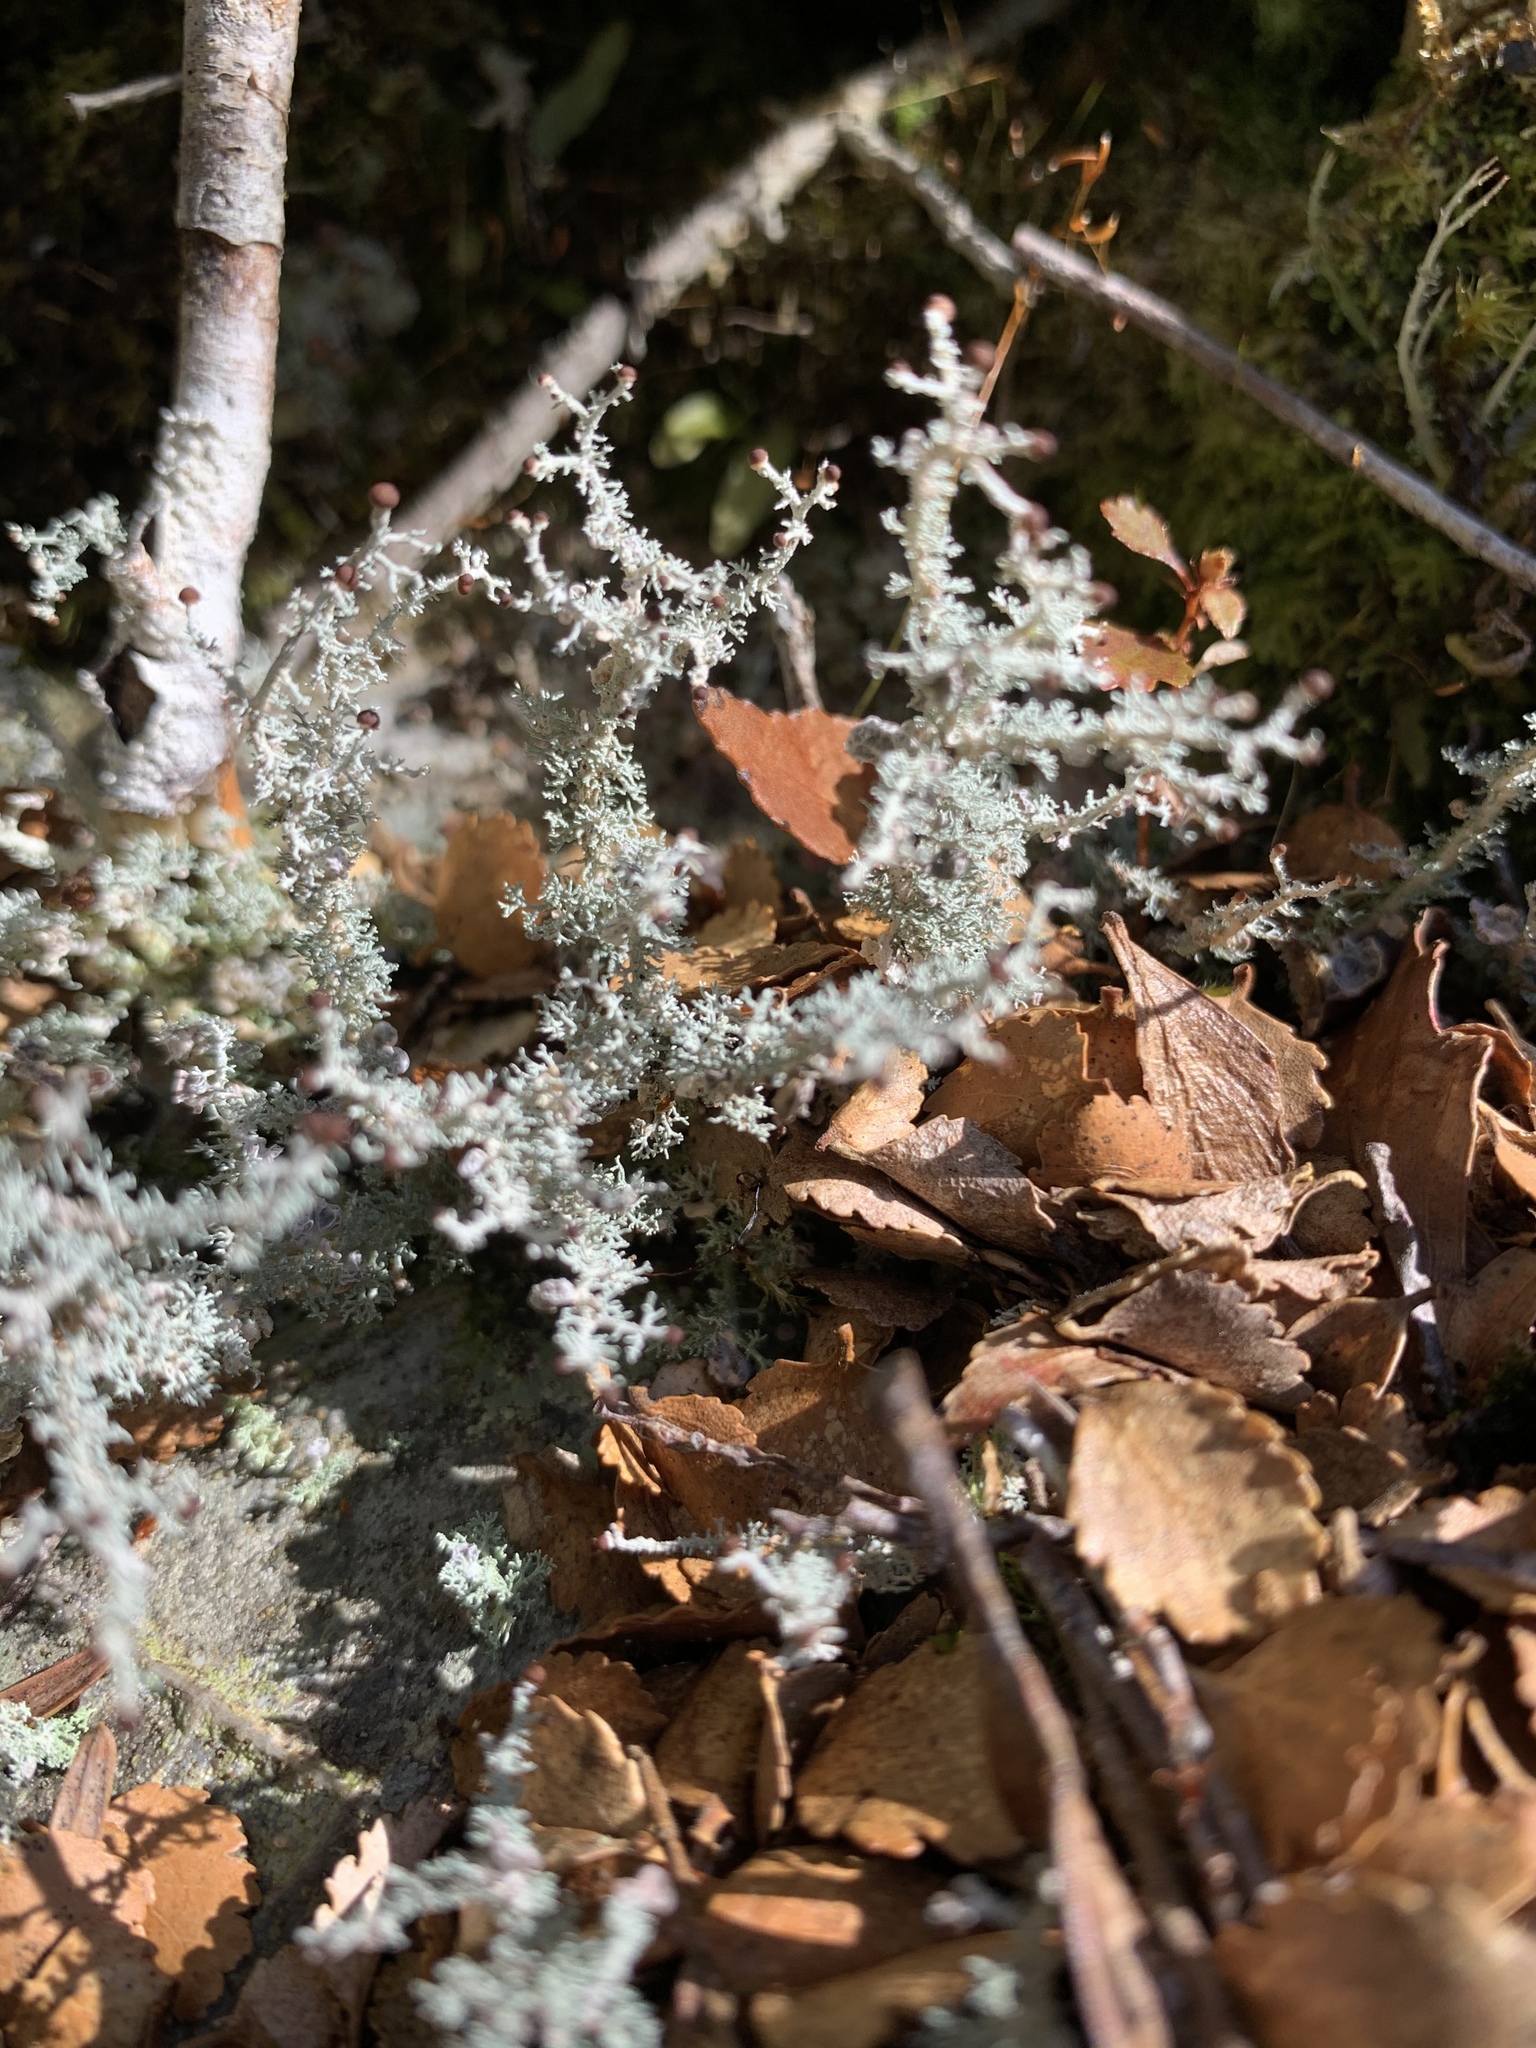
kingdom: Fungi
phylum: Ascomycota
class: Lecanoromycetes
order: Lecanorales
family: Stereocaulaceae
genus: Stereocaulon
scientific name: Stereocaulon ramulosum
